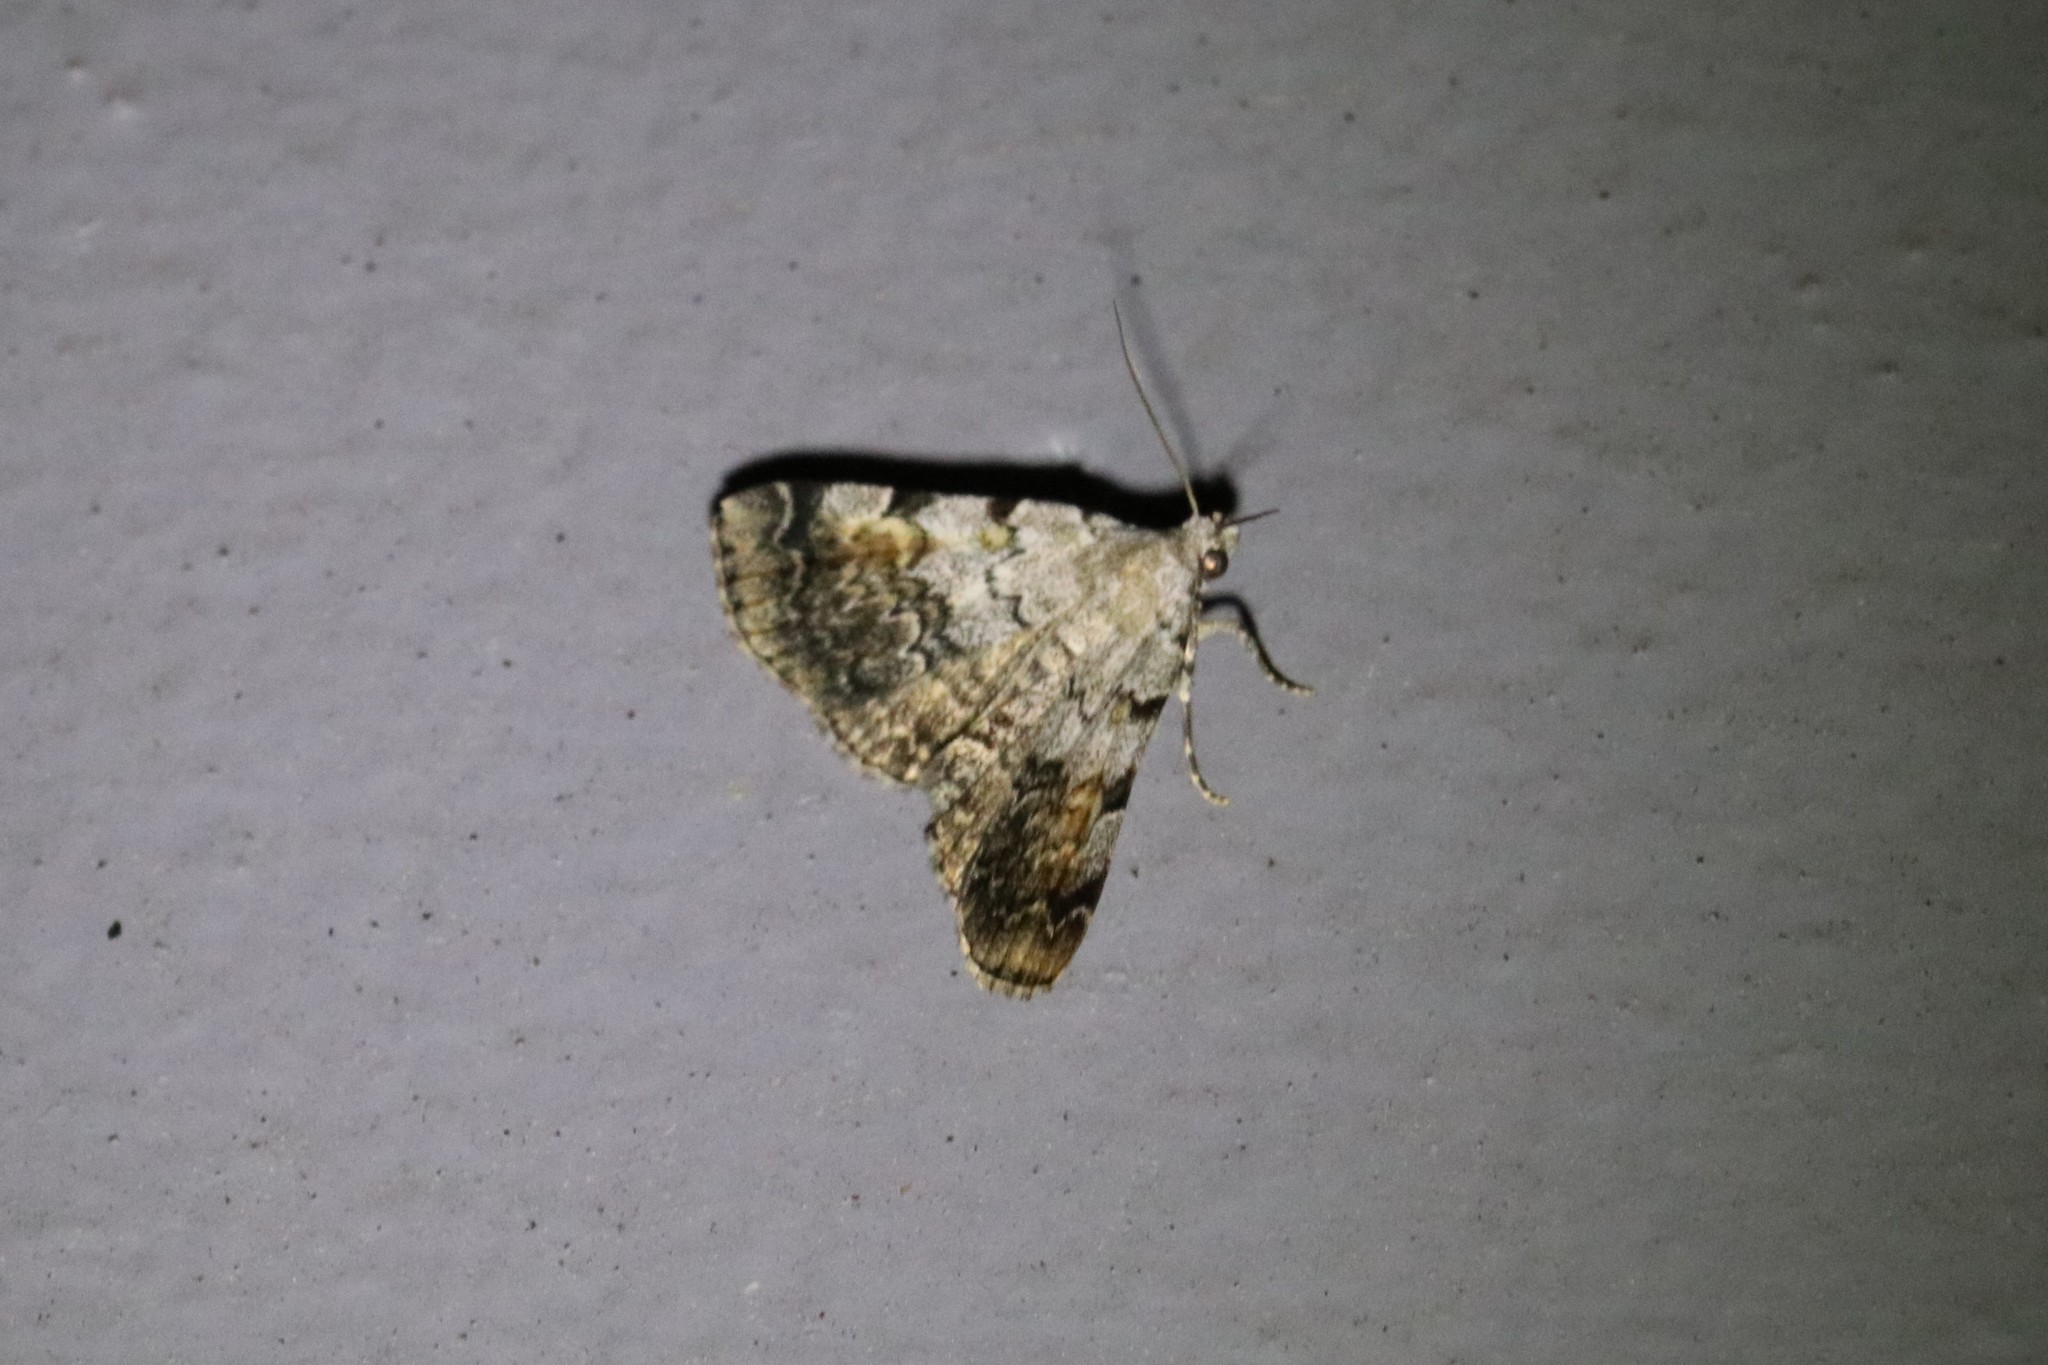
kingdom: Animalia
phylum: Arthropoda
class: Insecta
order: Lepidoptera
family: Erebidae
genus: Idia
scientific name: Idia americalis
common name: American idia moth
